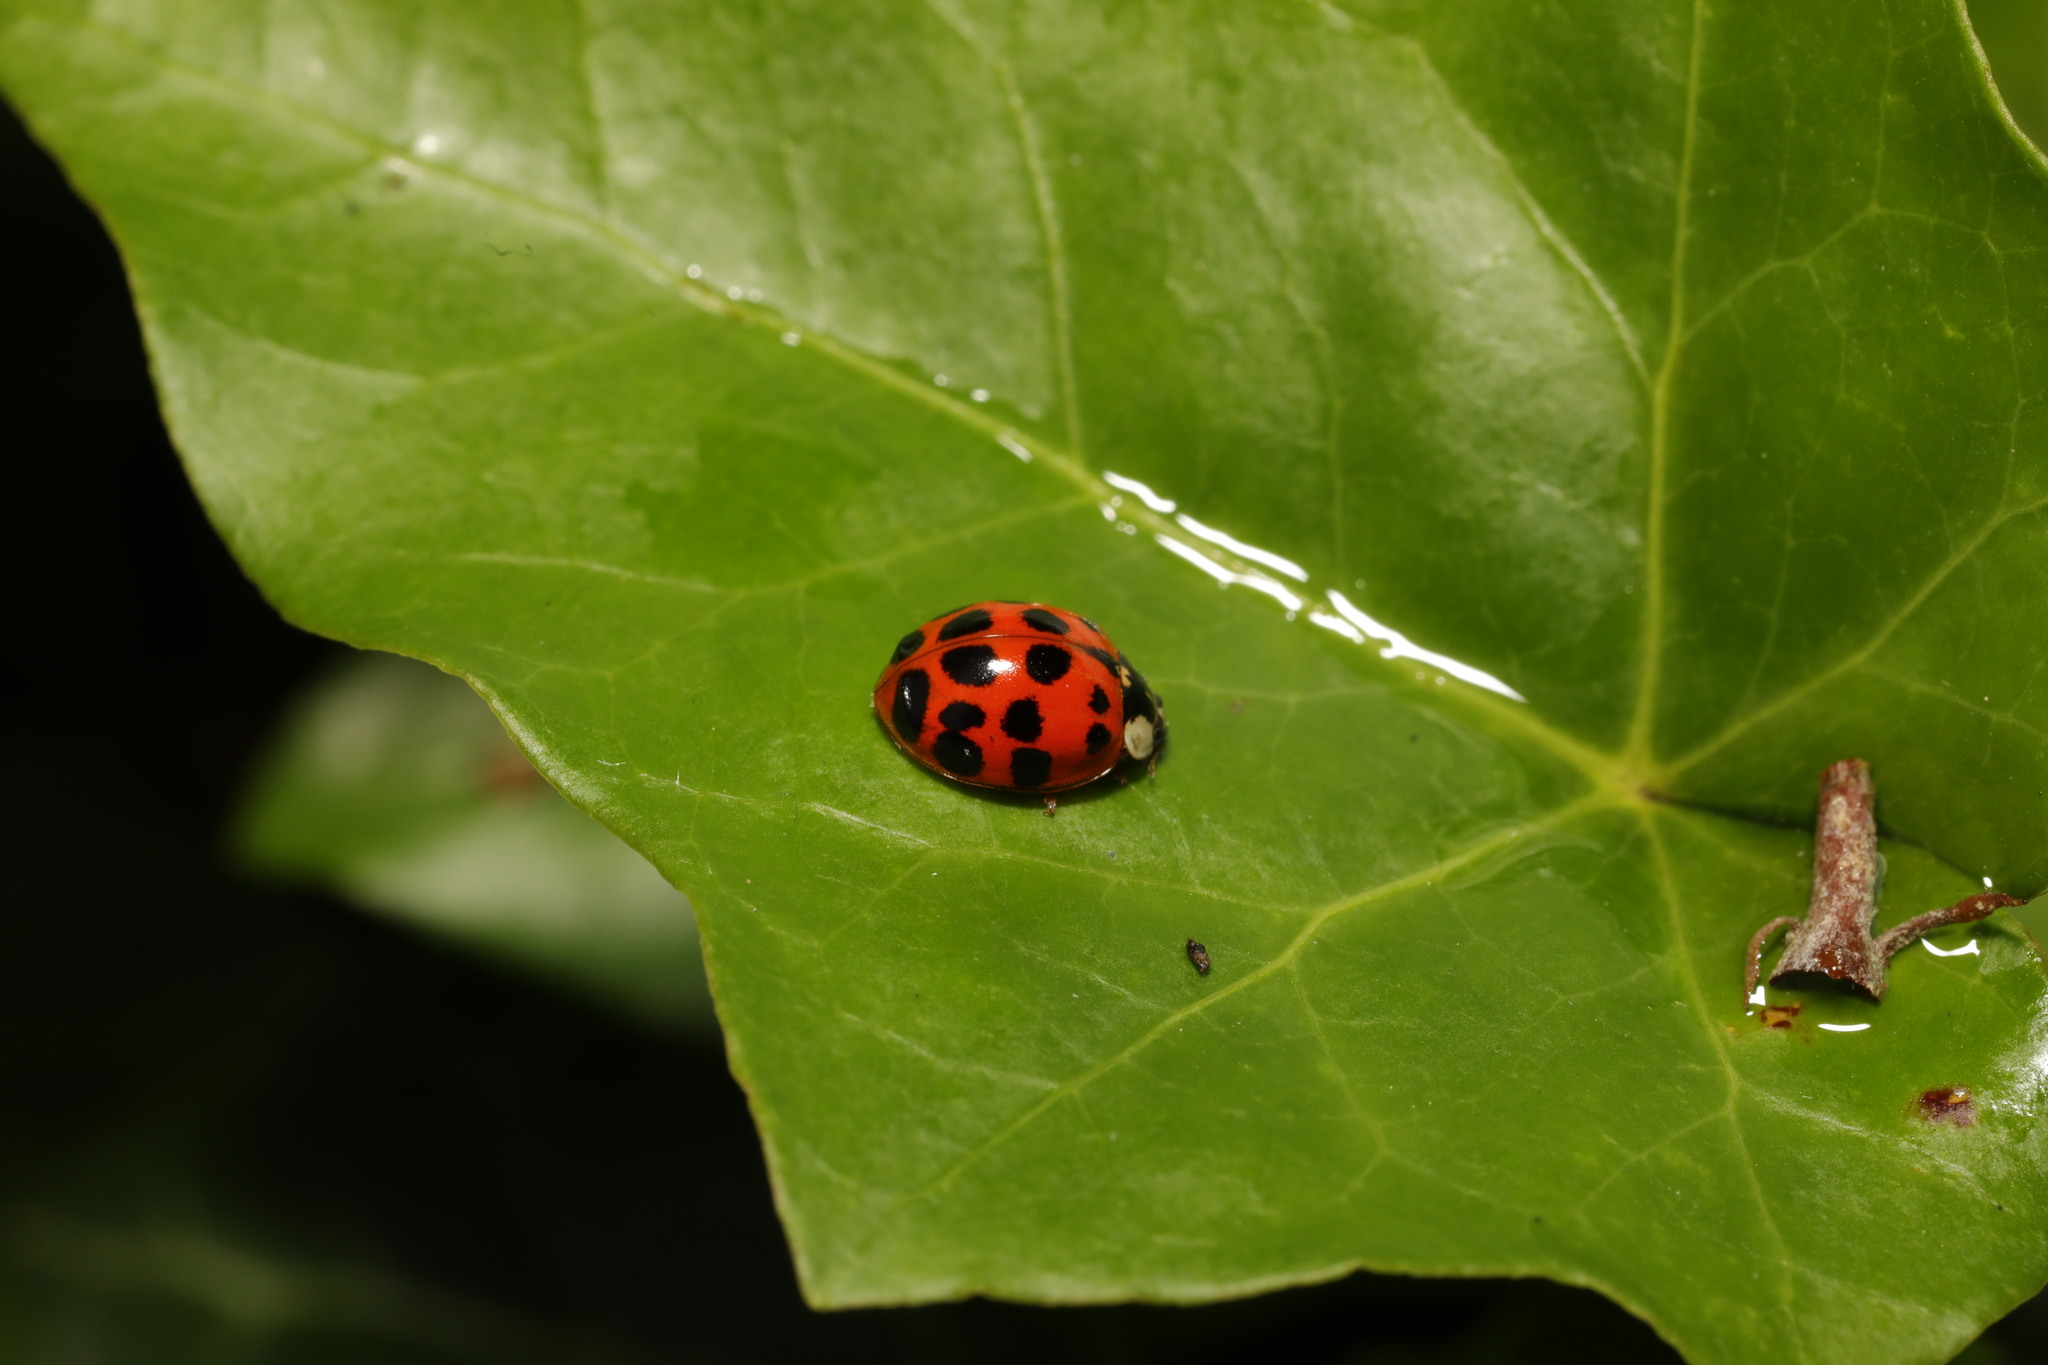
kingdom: Animalia
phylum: Arthropoda
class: Insecta
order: Coleoptera
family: Coccinellidae
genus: Harmonia
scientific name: Harmonia axyridis
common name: Harlequin ladybird
